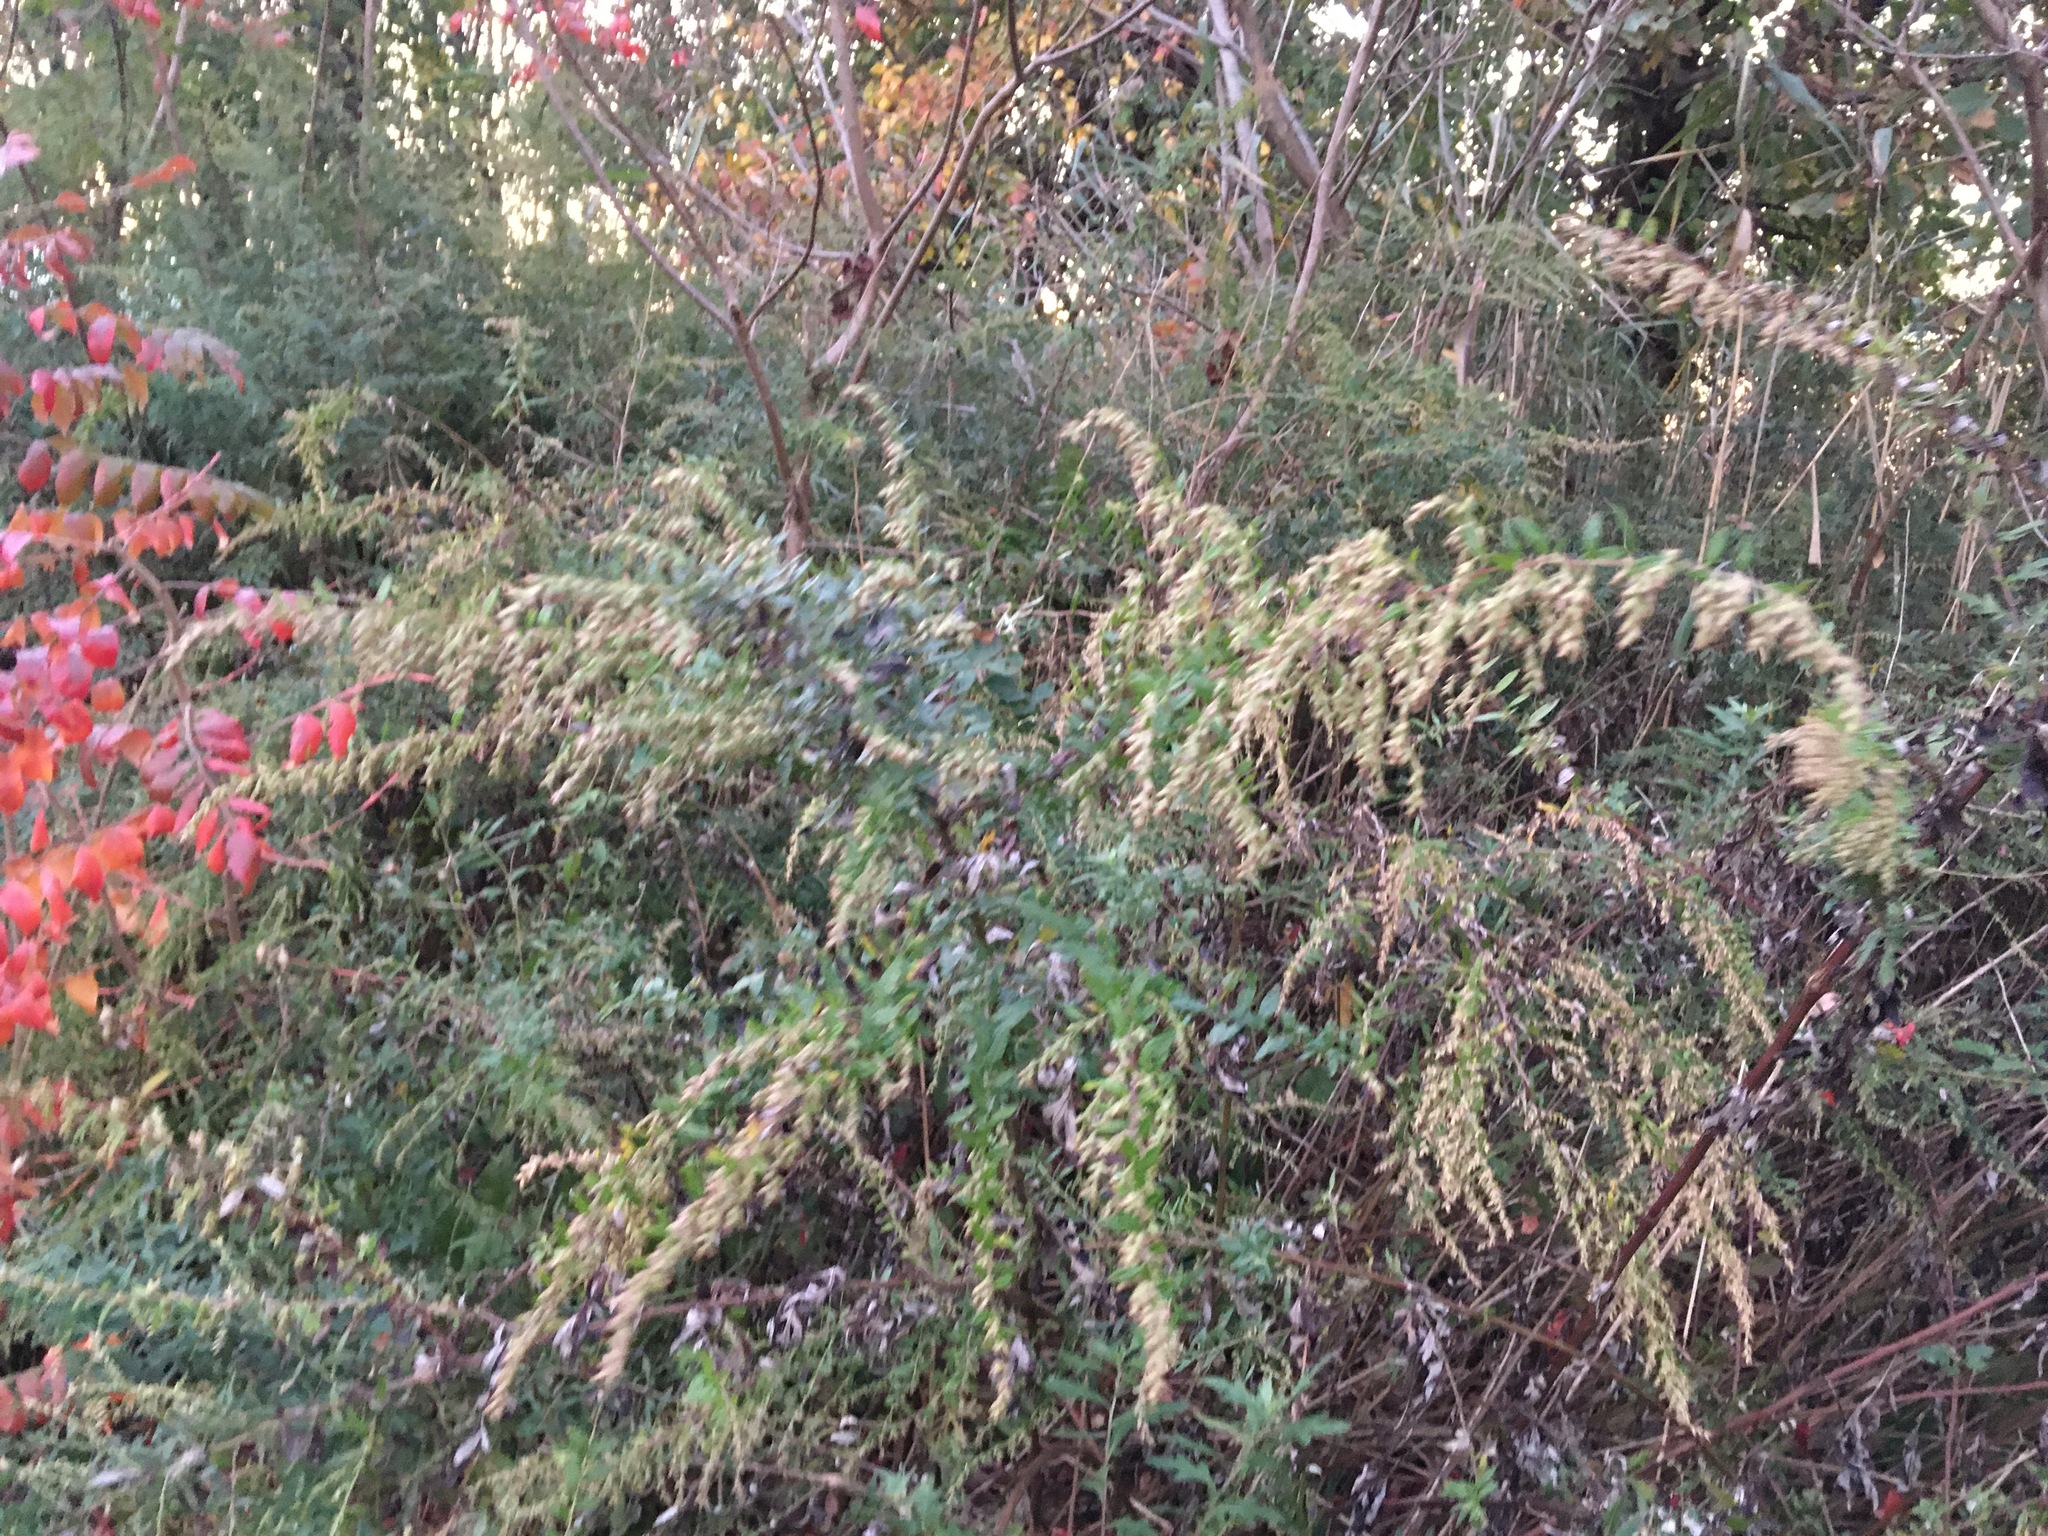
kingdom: Plantae
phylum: Tracheophyta
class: Magnoliopsida
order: Asterales
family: Asteraceae
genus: Artemisia
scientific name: Artemisia vulgaris
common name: Mugwort
